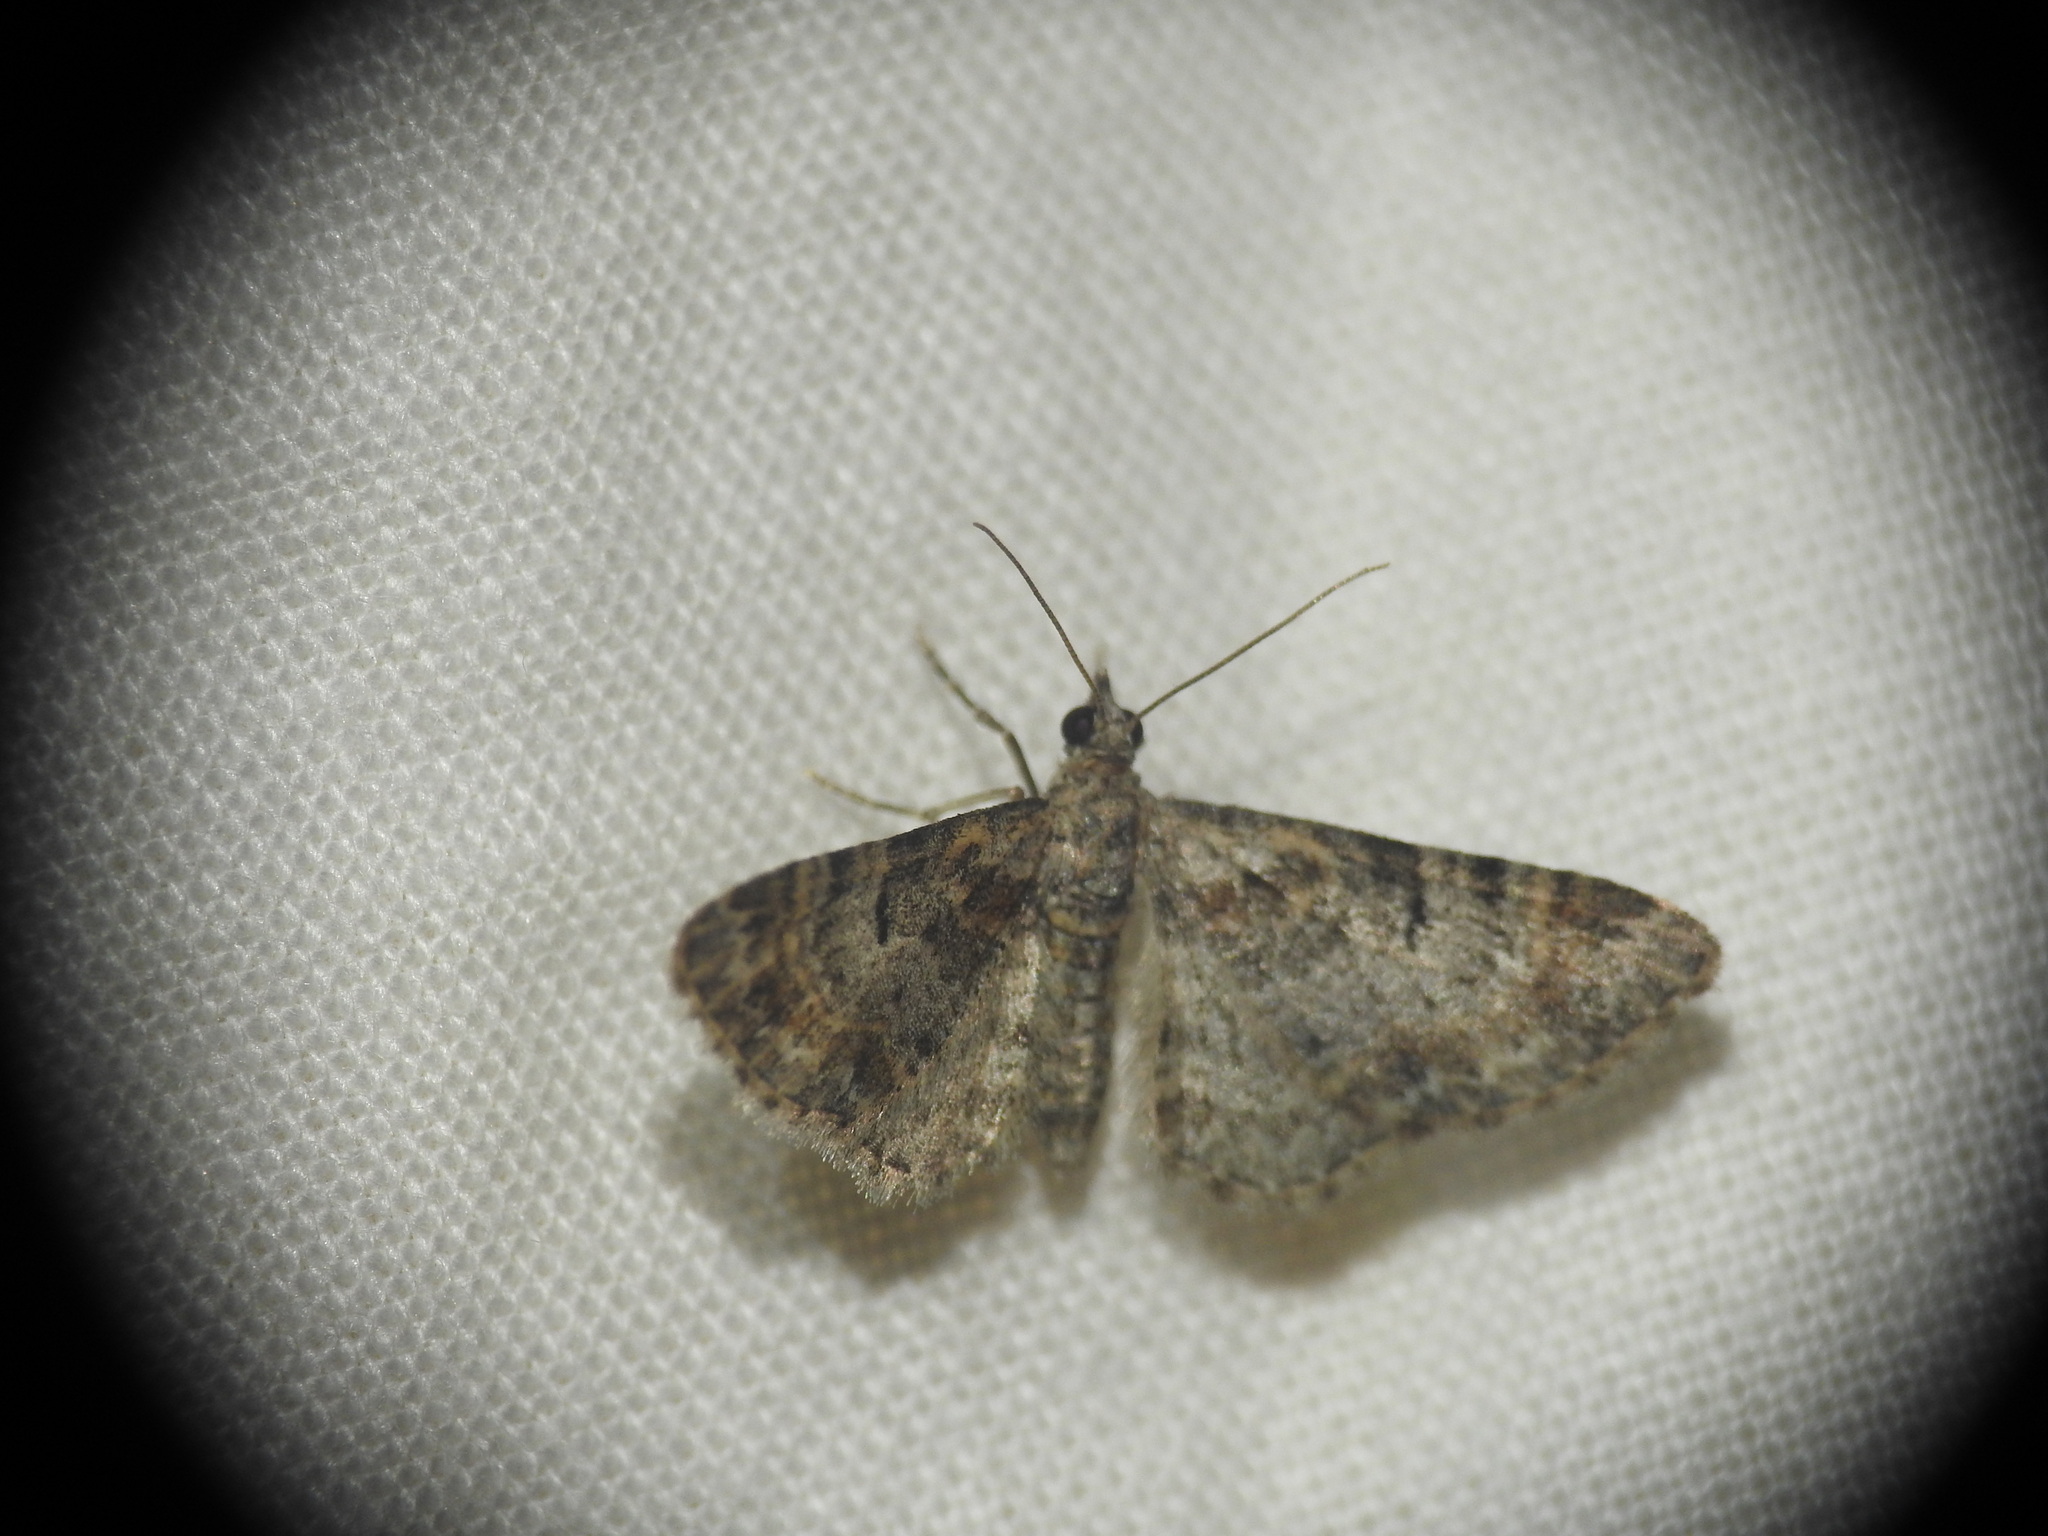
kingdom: Animalia
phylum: Arthropoda
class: Insecta
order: Lepidoptera
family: Geometridae
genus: Gymnoscelis
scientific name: Gymnoscelis rufifasciata
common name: Double-striped pug
